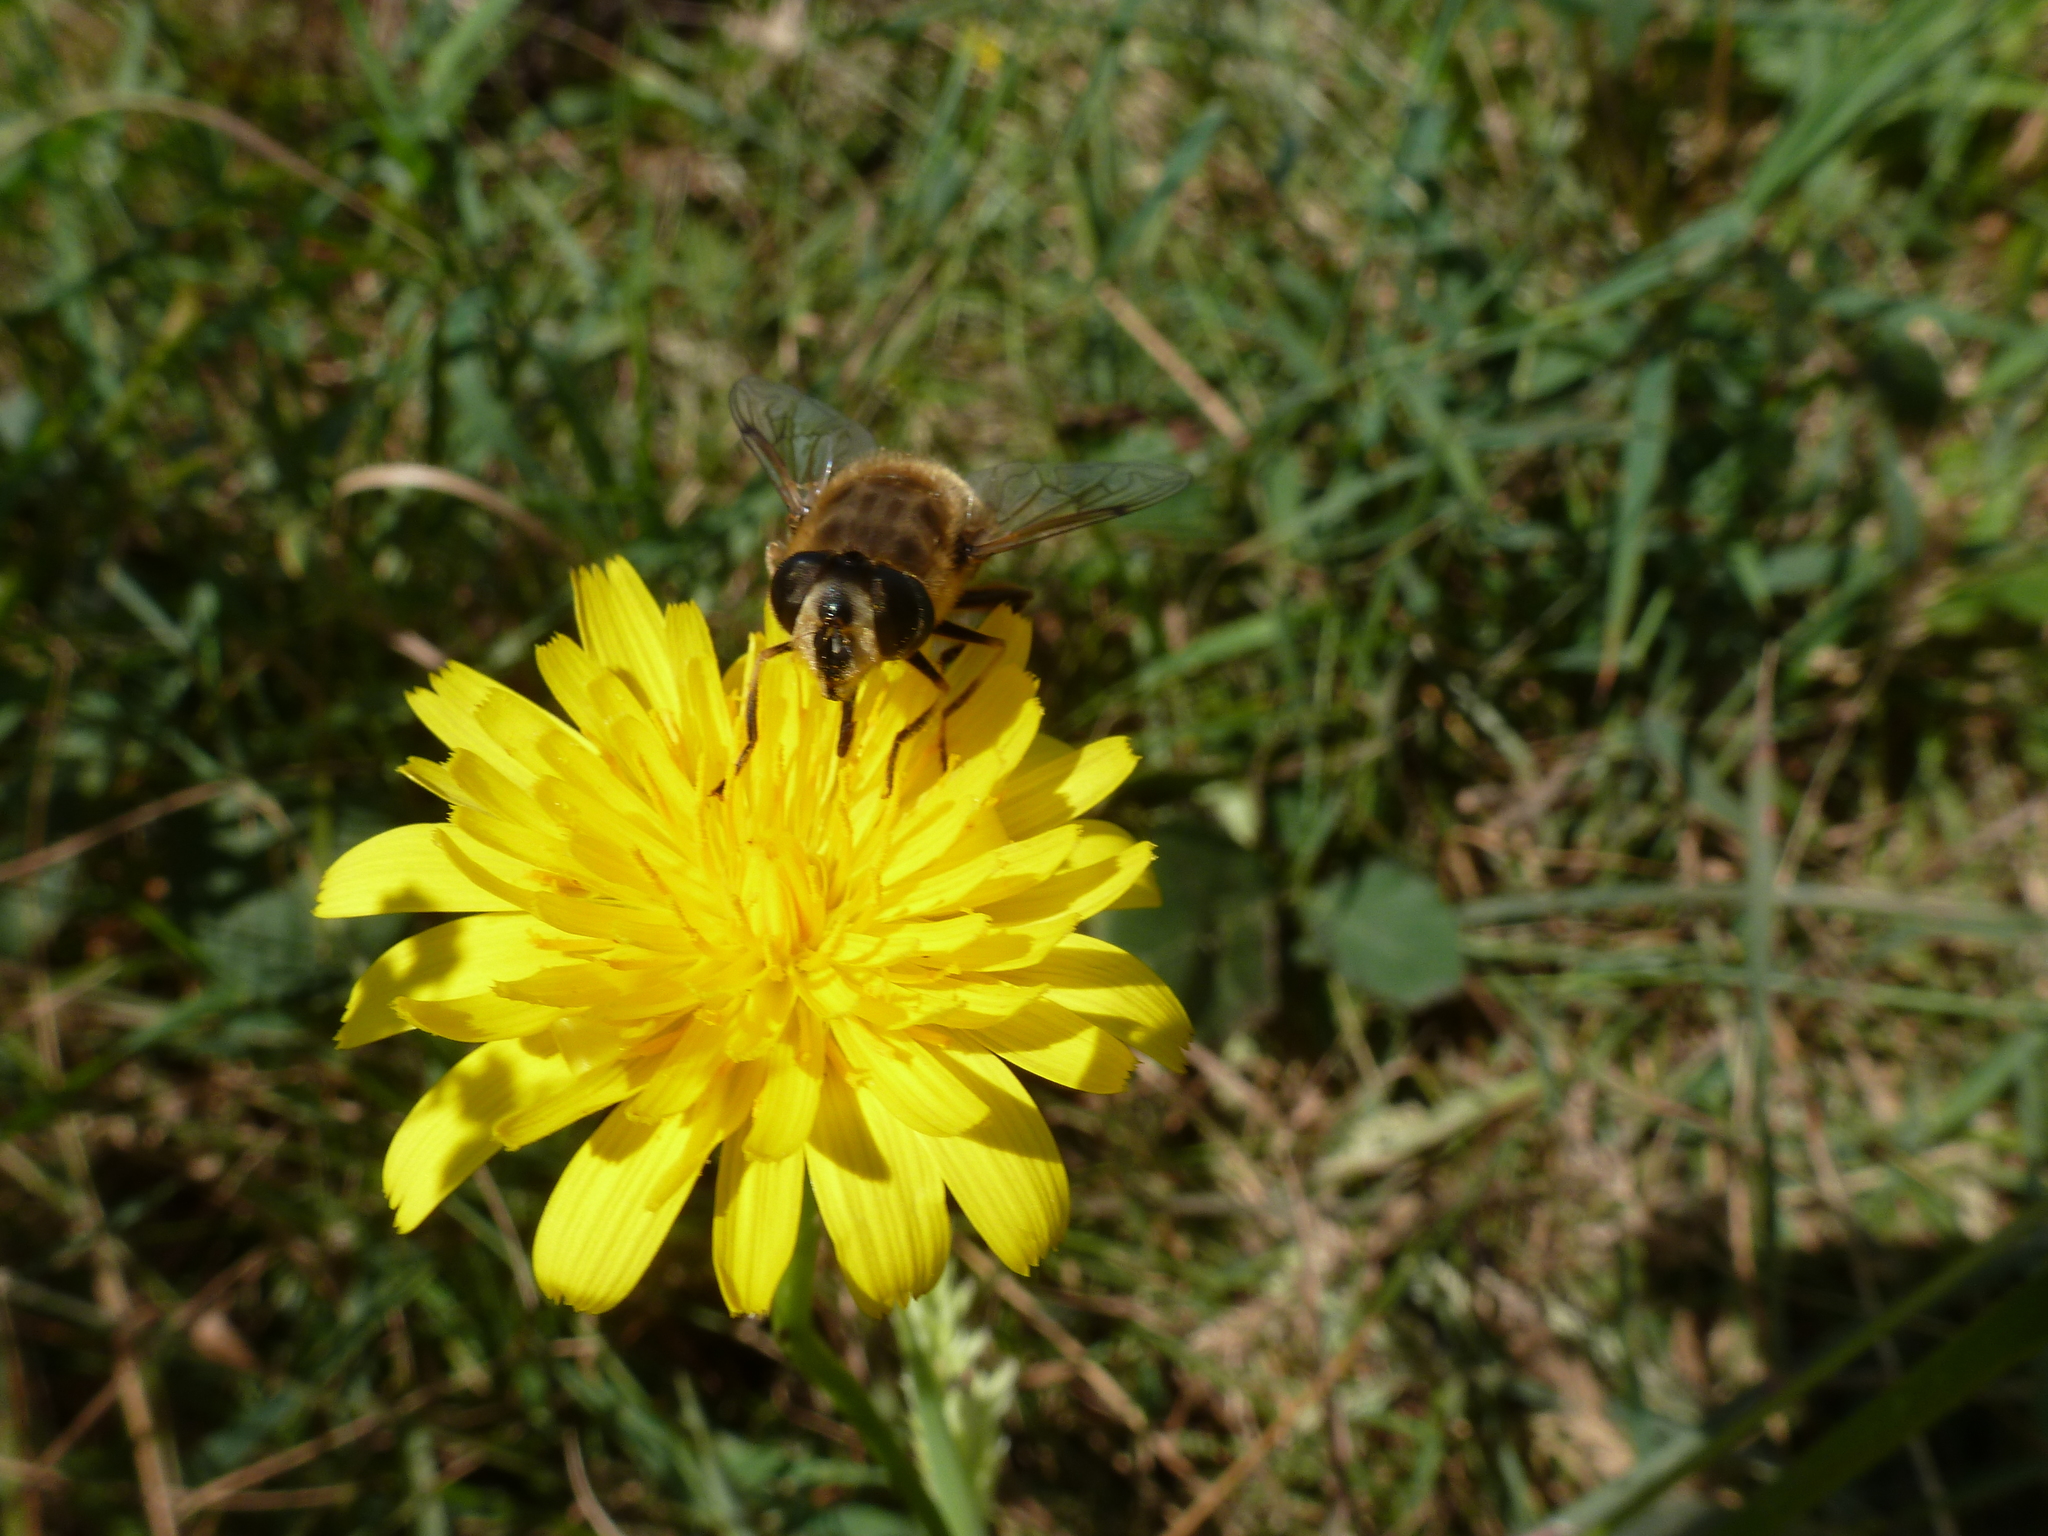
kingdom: Animalia
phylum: Arthropoda
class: Insecta
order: Diptera
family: Syrphidae
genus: Eristalis
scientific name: Eristalis tenax
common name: Drone fly
